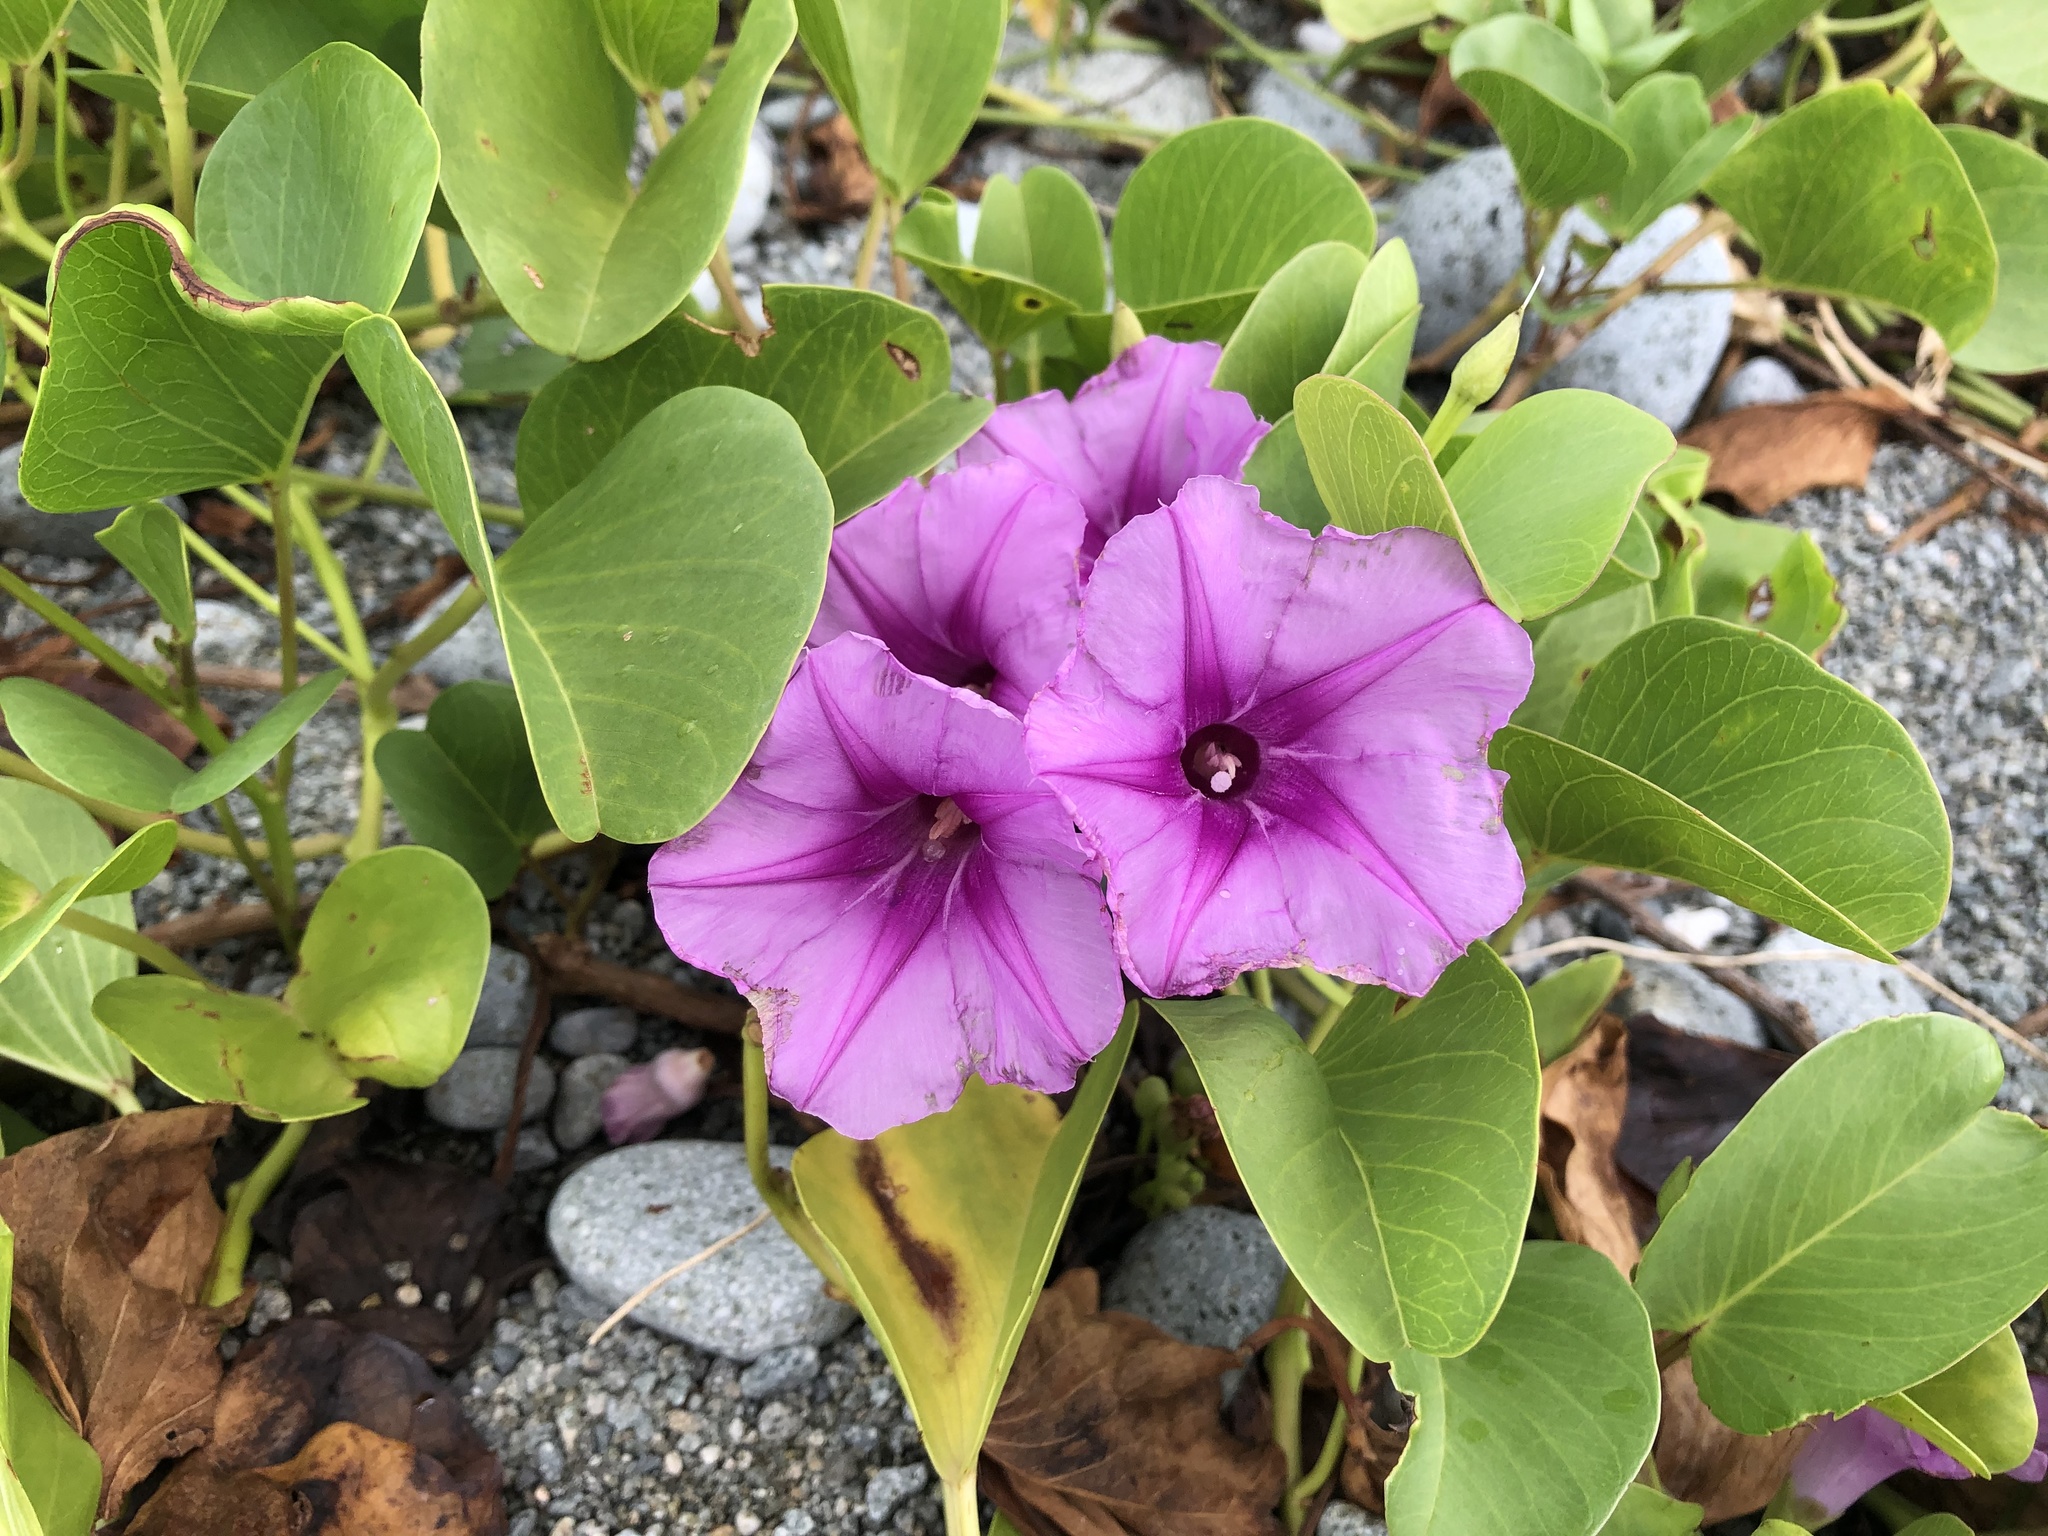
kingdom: Plantae
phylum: Tracheophyta
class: Magnoliopsida
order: Solanales
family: Convolvulaceae
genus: Ipomoea
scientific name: Ipomoea pes-caprae
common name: Beach morning glory
